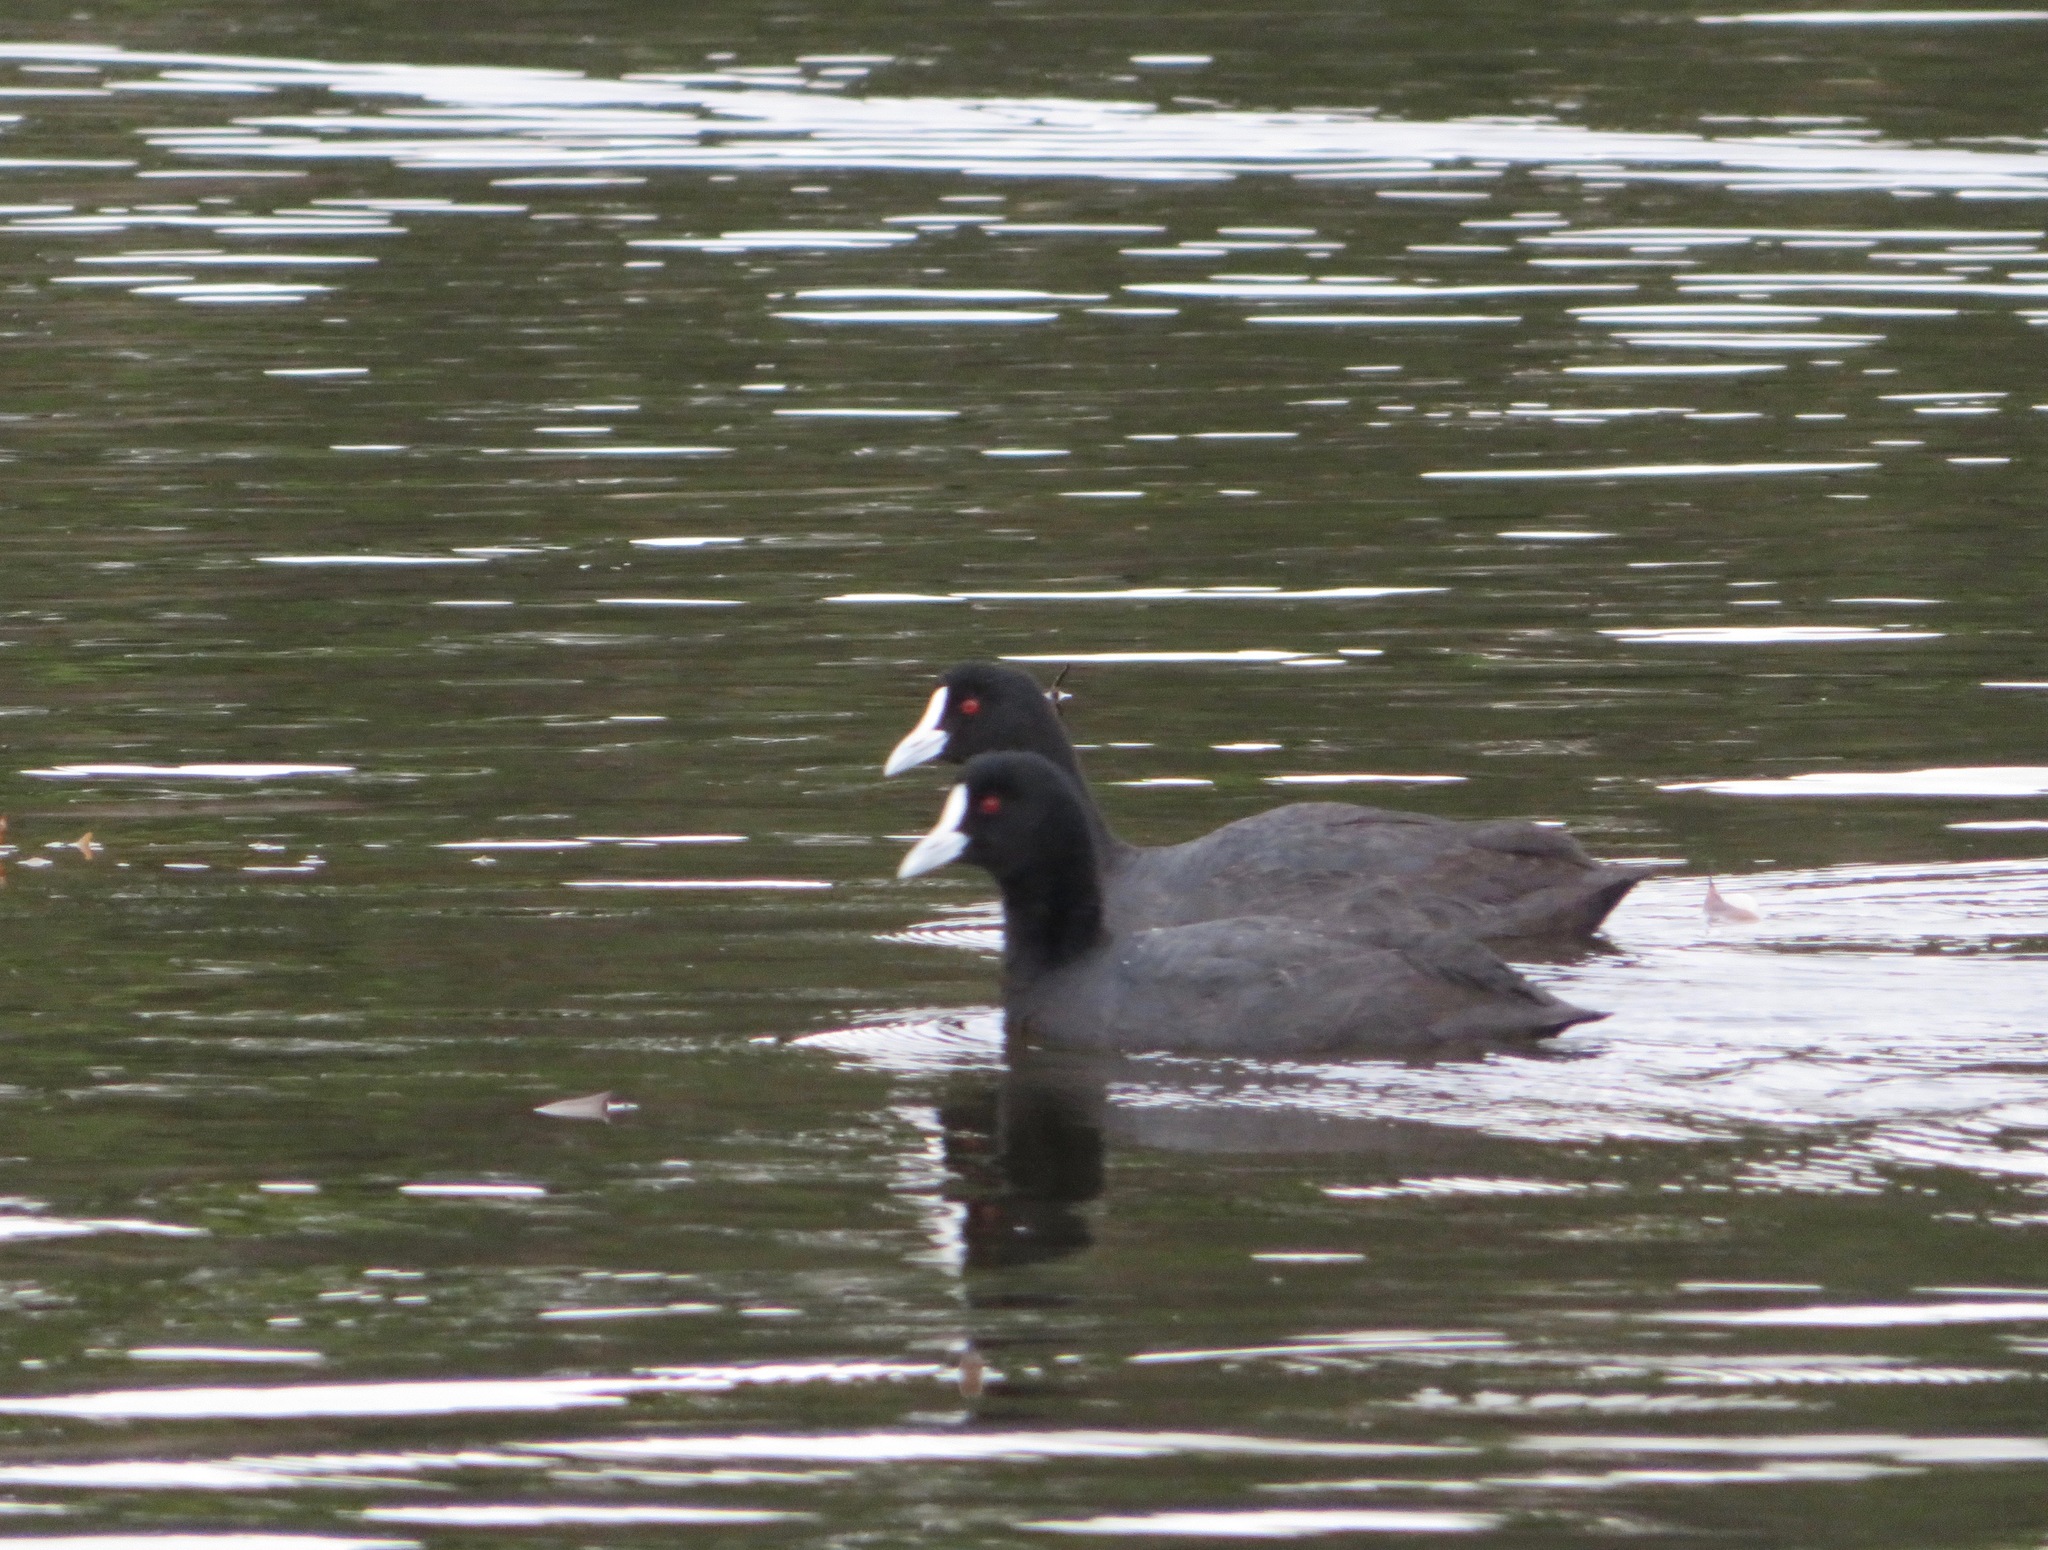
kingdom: Animalia
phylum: Chordata
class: Aves
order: Gruiformes
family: Rallidae
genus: Fulica
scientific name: Fulica atra
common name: Eurasian coot
